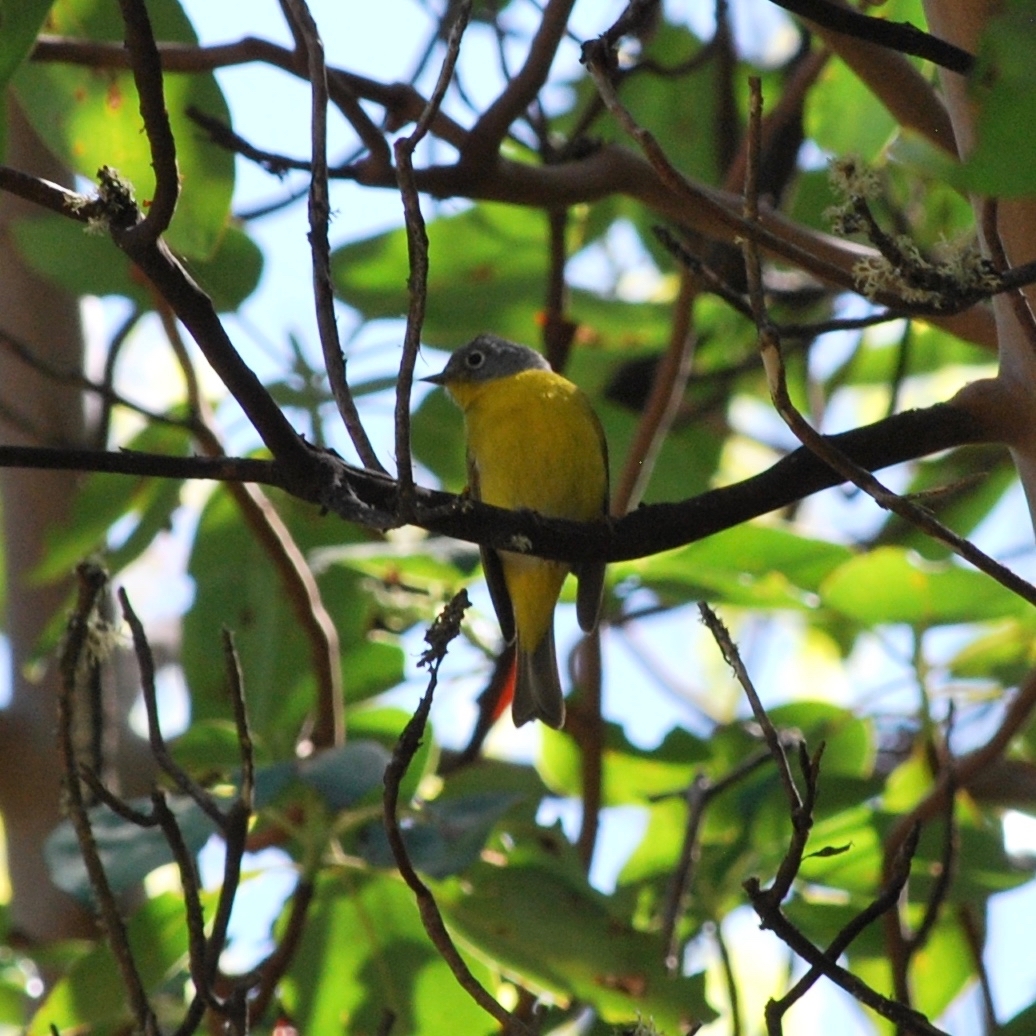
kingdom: Animalia
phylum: Chordata
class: Aves
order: Passeriformes
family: Parulidae
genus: Leiothlypis
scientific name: Leiothlypis ruficapilla
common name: Nashville warbler
